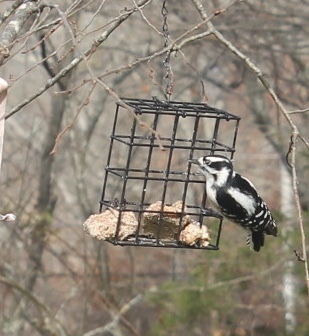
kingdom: Animalia
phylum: Chordata
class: Aves
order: Piciformes
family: Picidae
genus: Dryobates
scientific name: Dryobates pubescens
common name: Downy woodpecker
